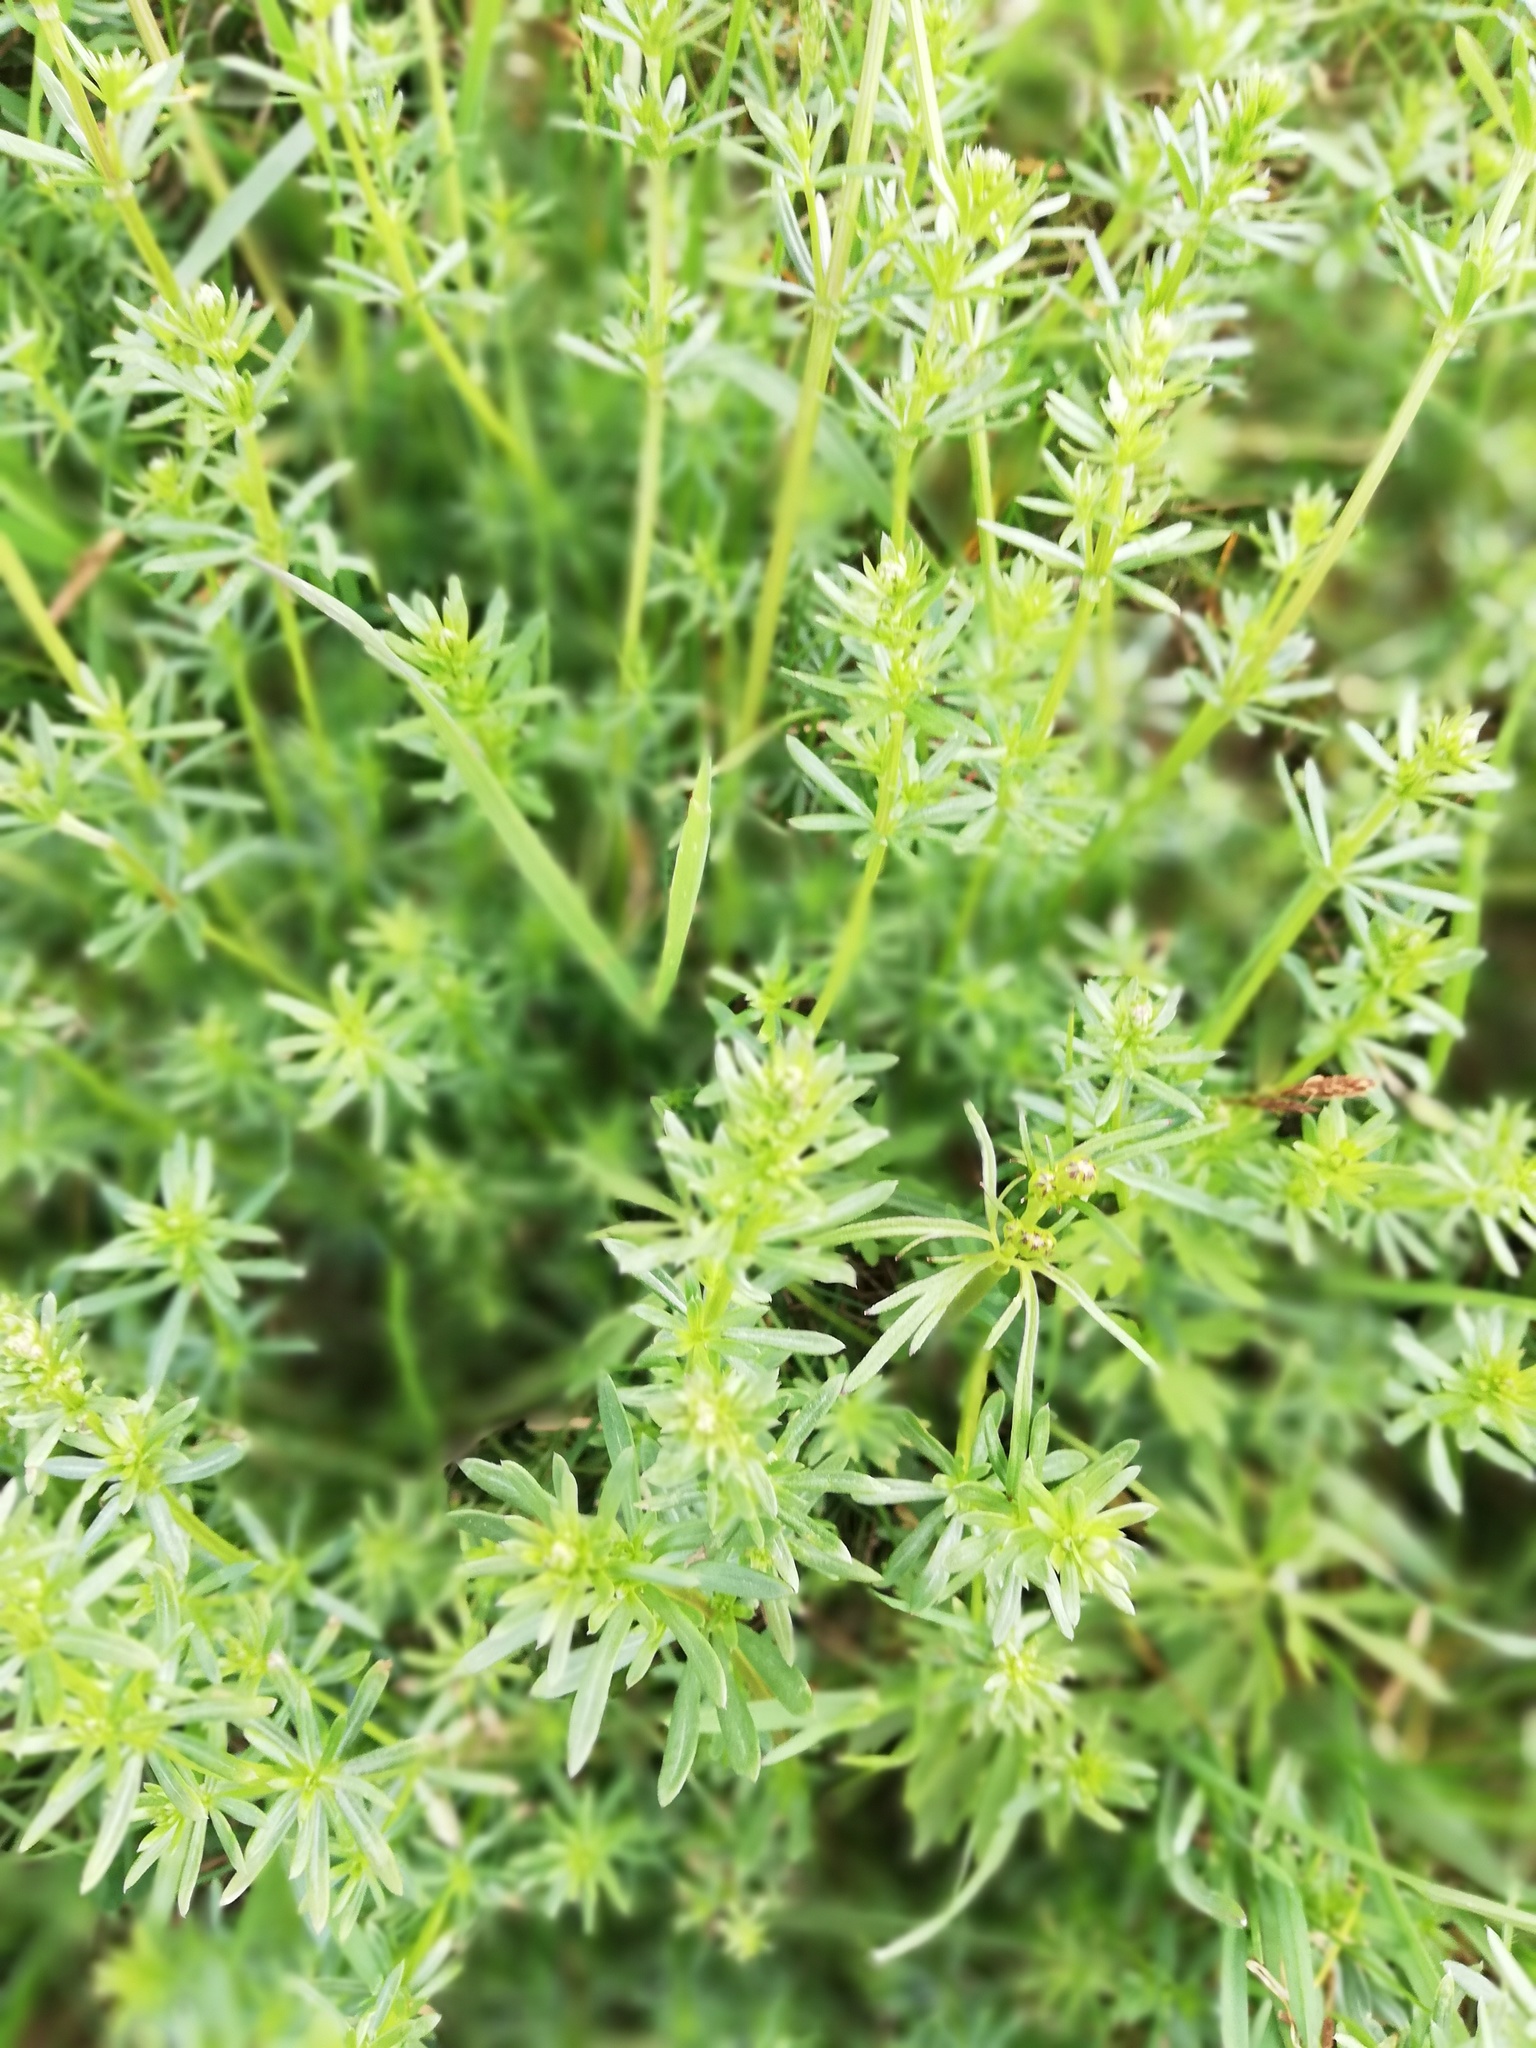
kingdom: Plantae
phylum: Tracheophyta
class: Magnoliopsida
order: Gentianales
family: Rubiaceae
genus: Galium
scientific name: Galium mollugo
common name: Hedge bedstraw
